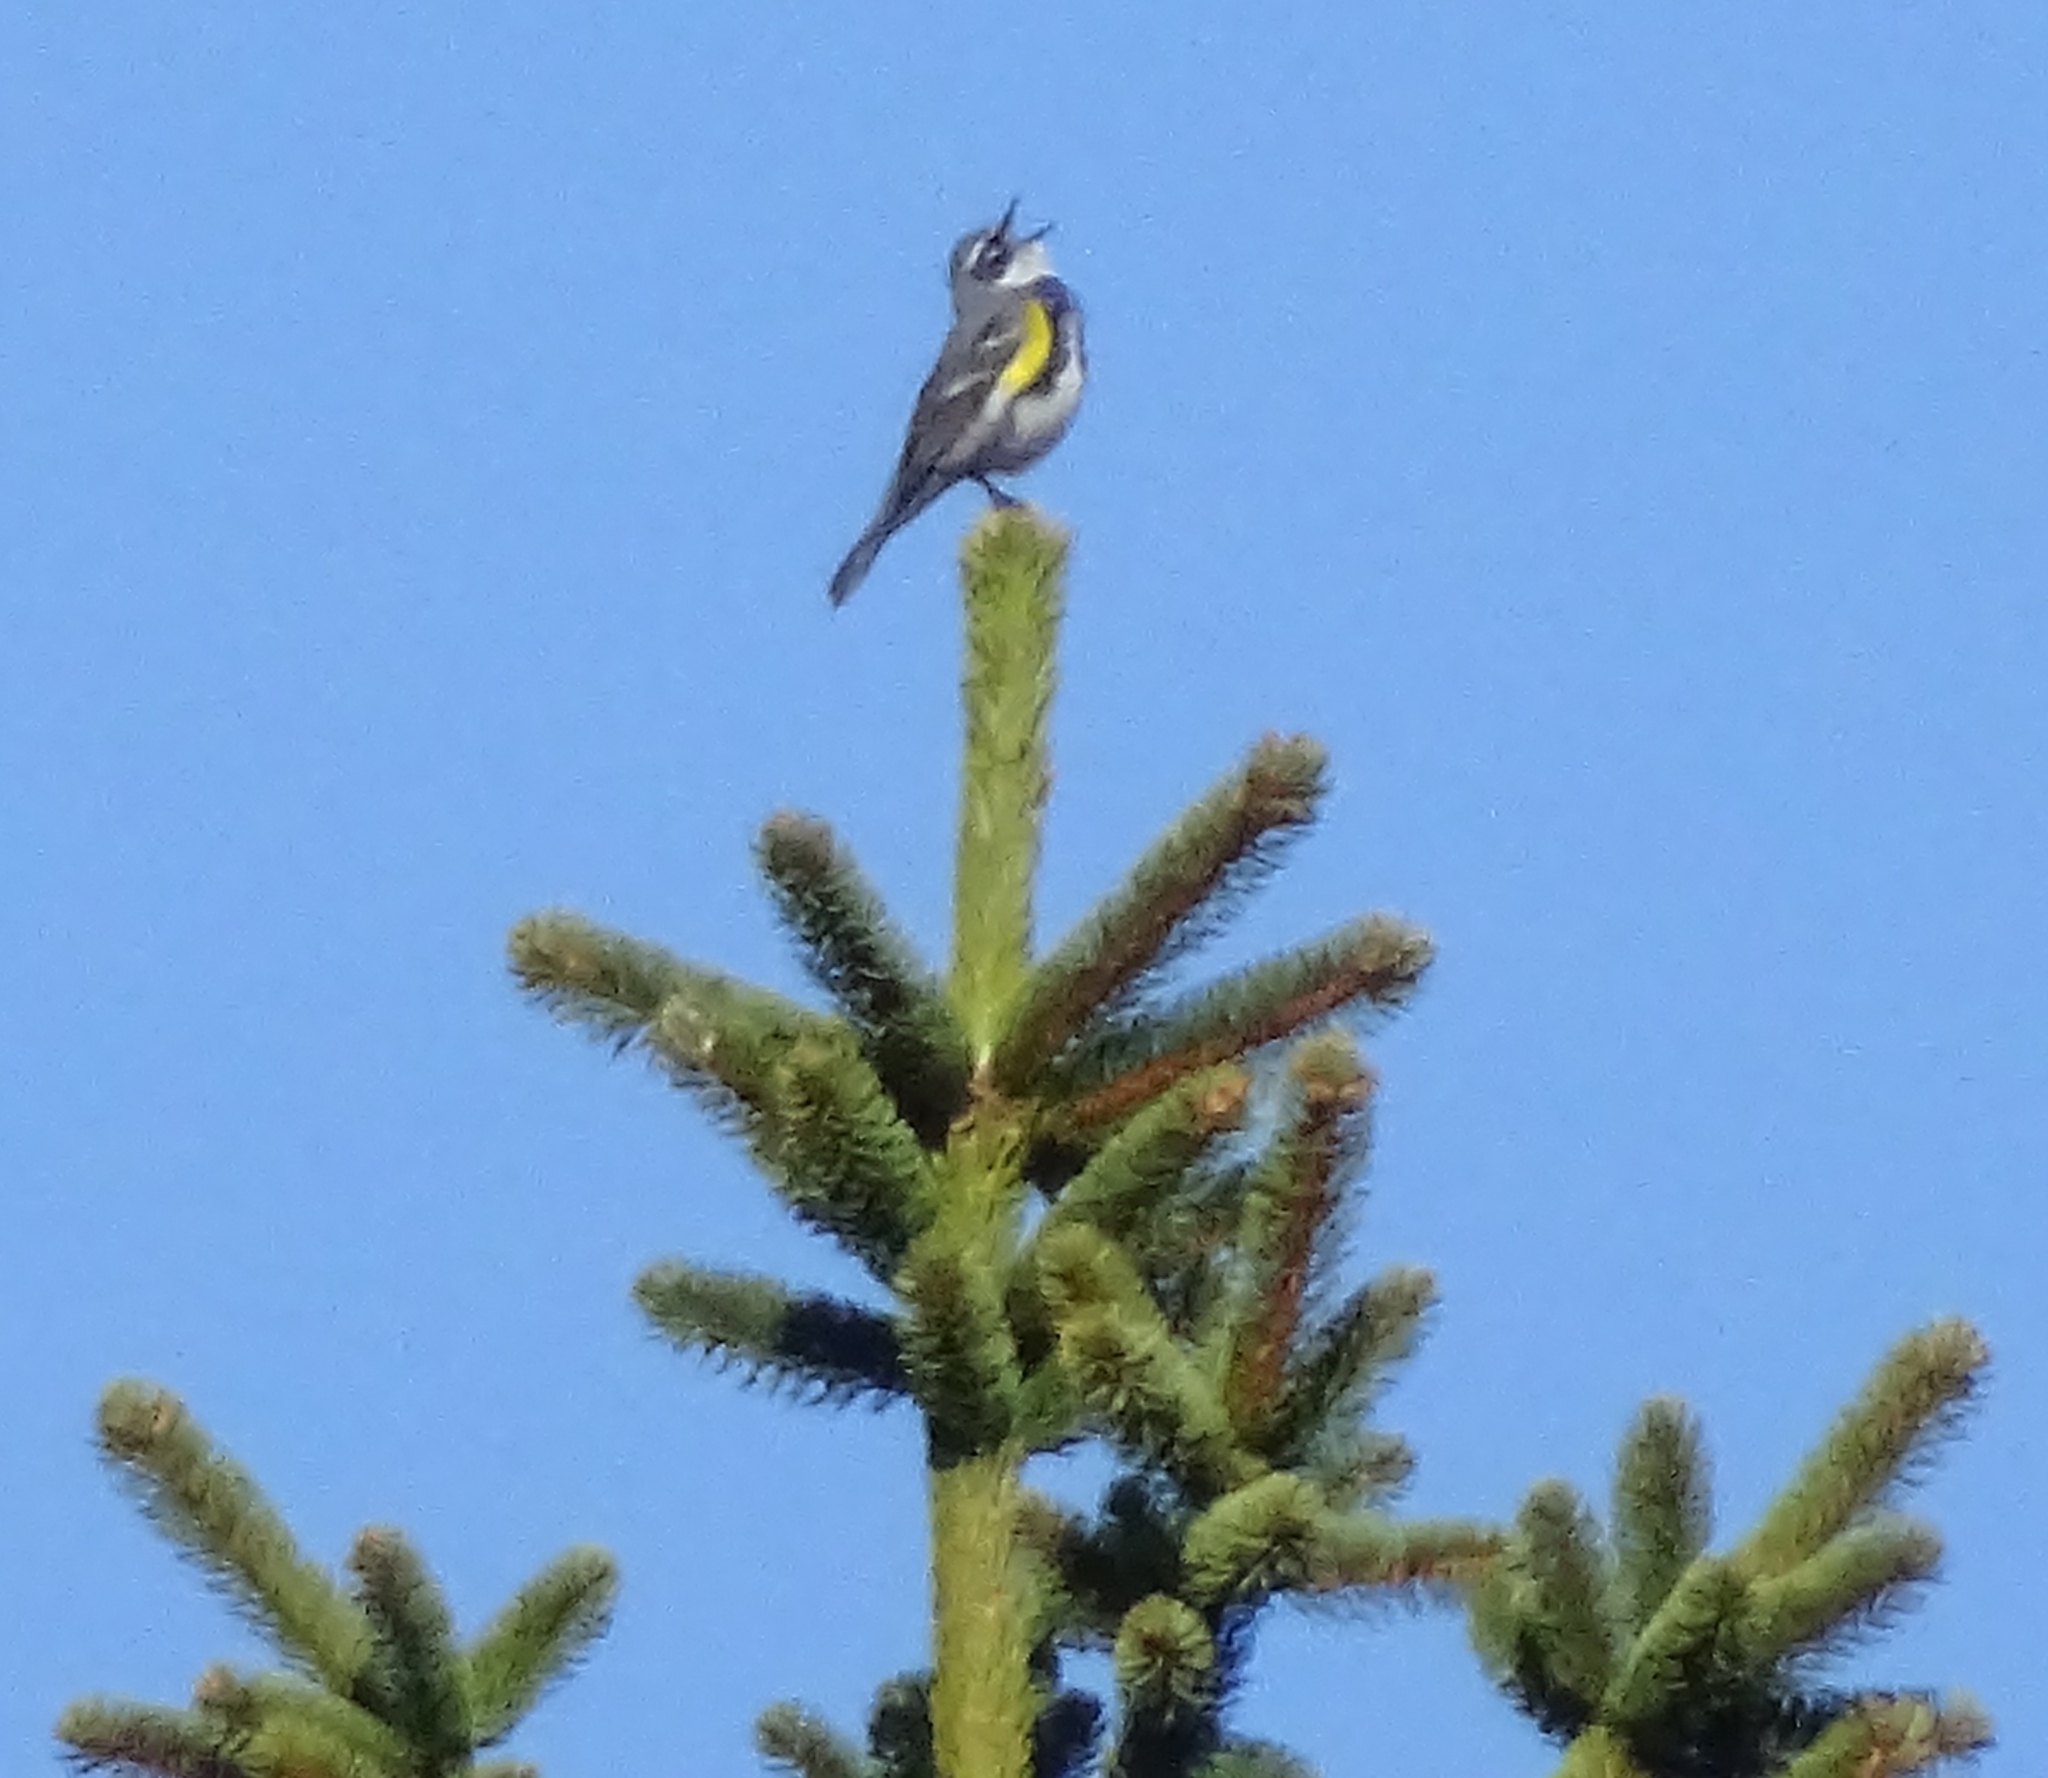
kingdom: Animalia
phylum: Chordata
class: Aves
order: Passeriformes
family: Parulidae
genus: Setophaga
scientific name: Setophaga coronata
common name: Myrtle warbler
